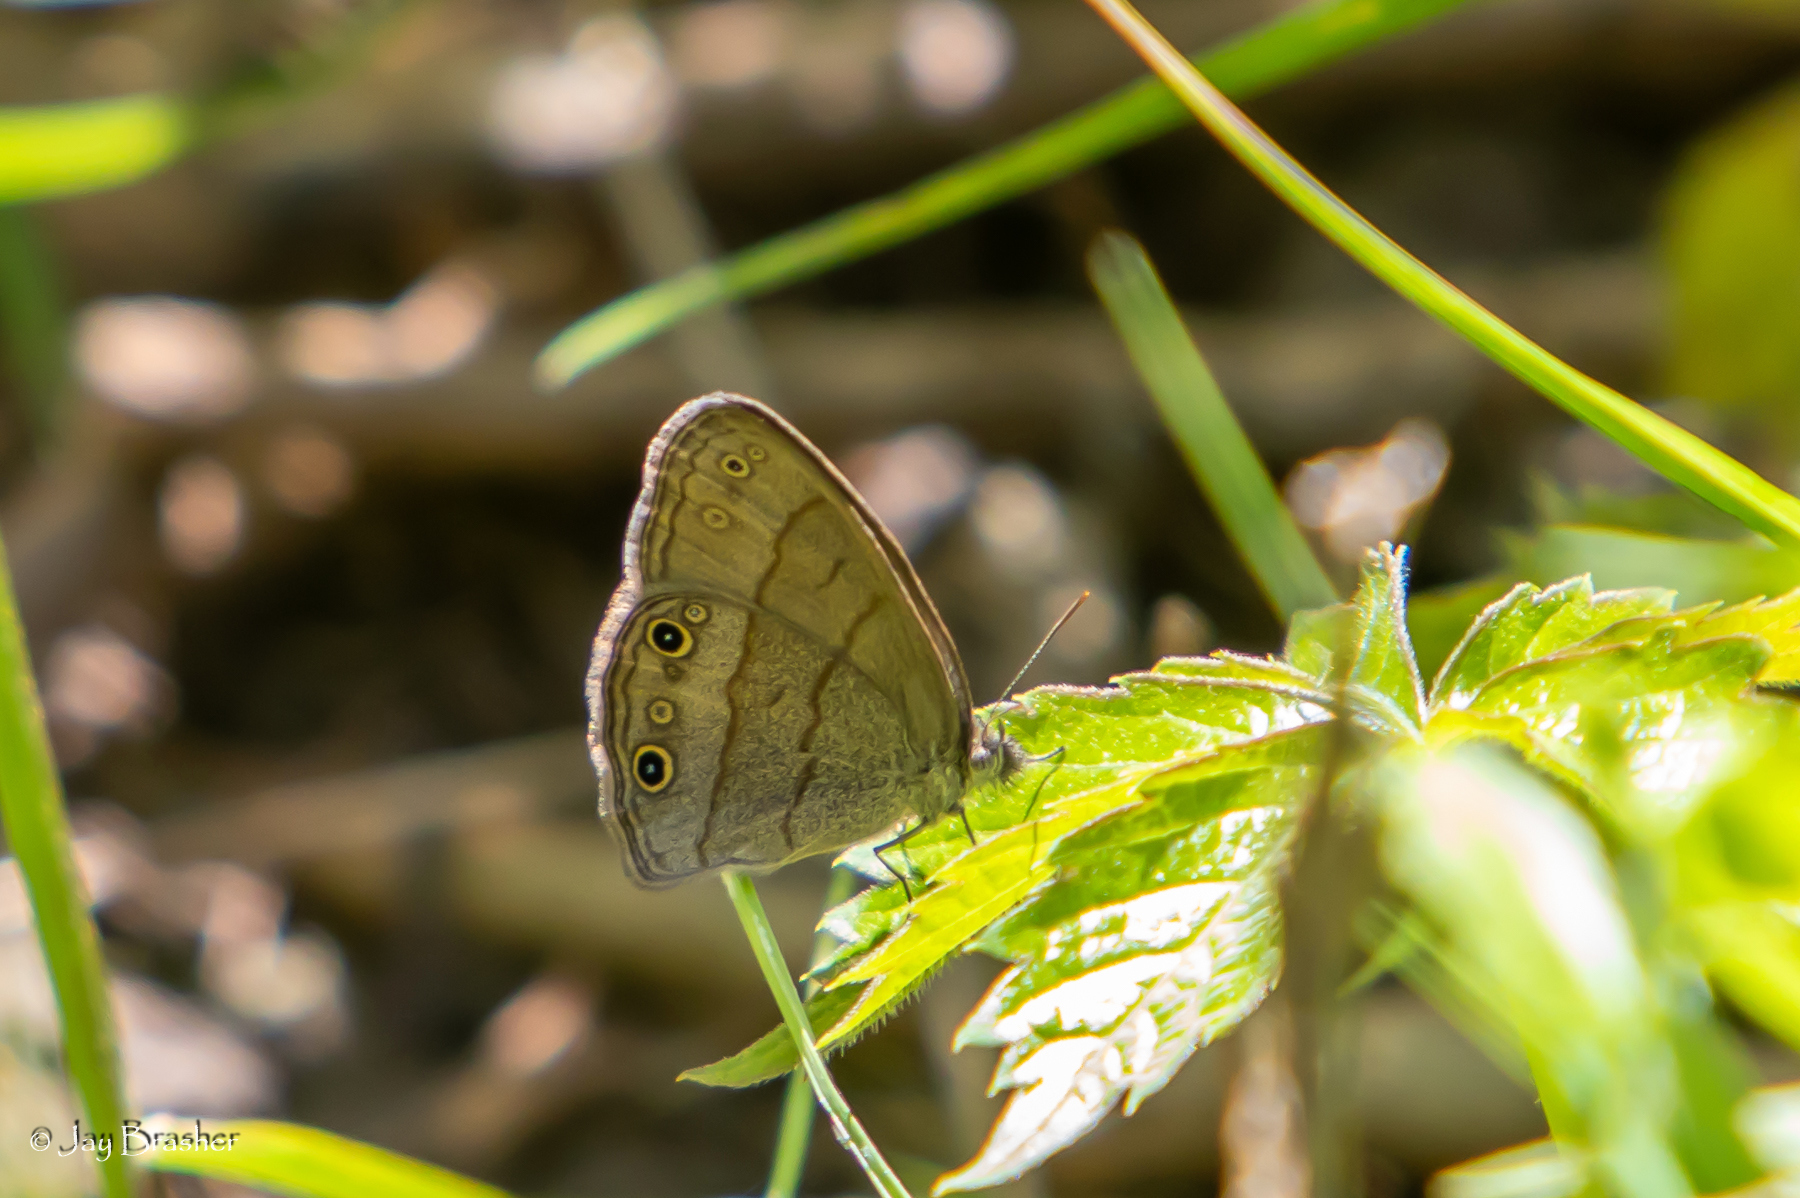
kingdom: Animalia
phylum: Arthropoda
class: Insecta
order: Lepidoptera
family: Nymphalidae
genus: Hermeuptychia
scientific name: Hermeuptychia hermes
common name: Hermes satyr
